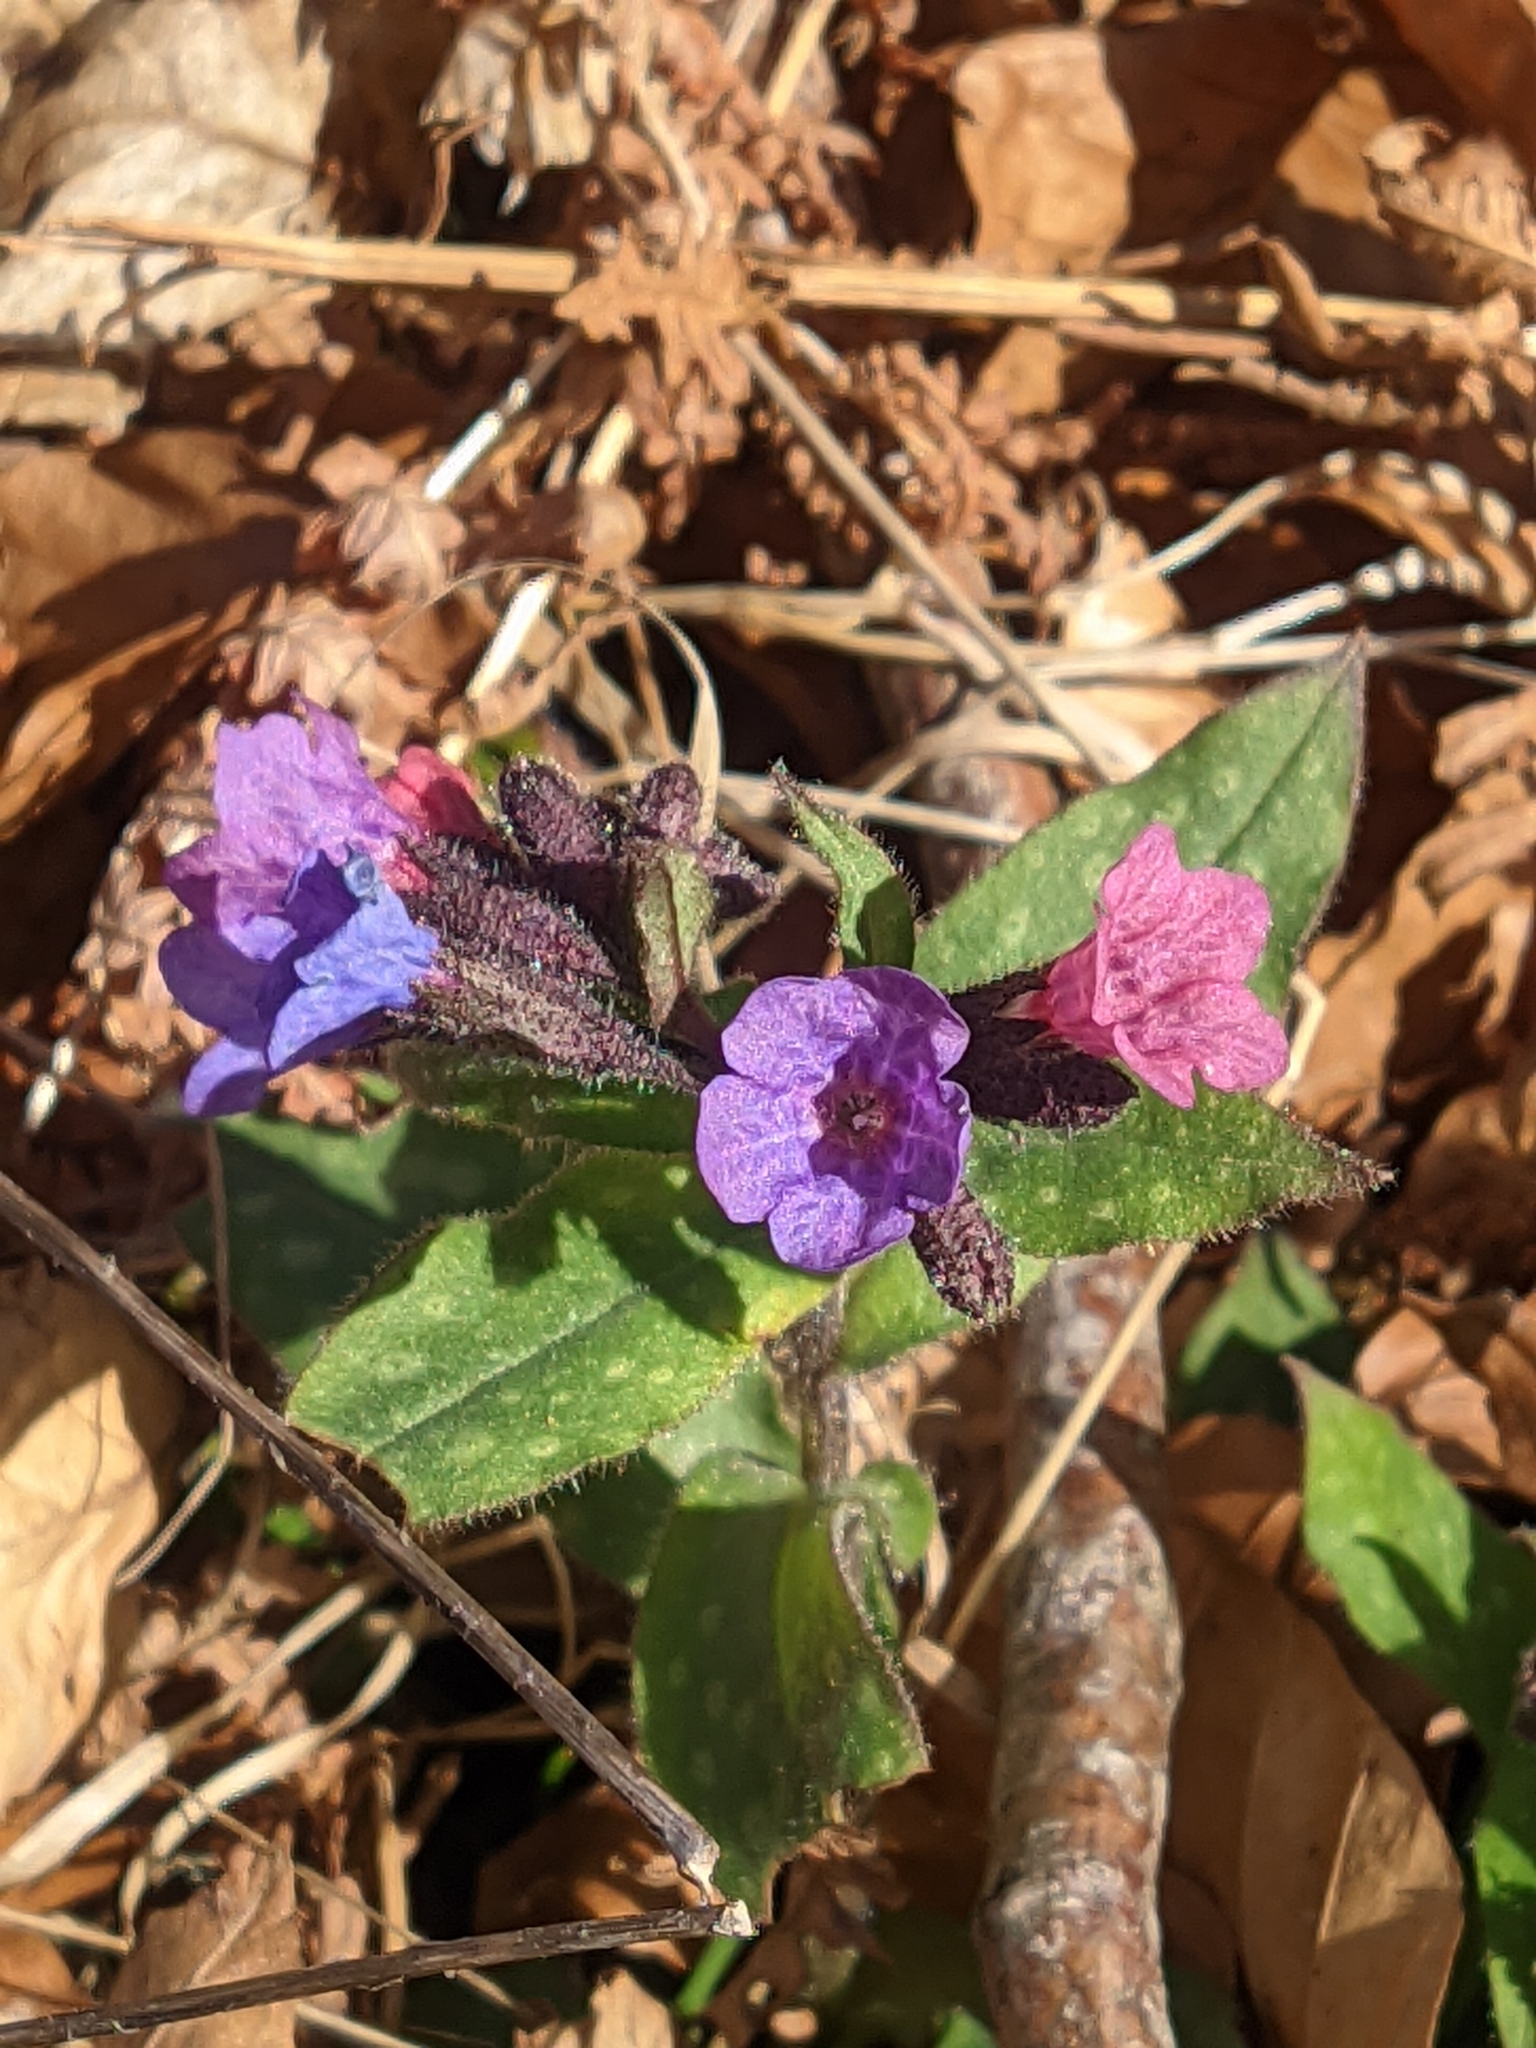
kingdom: Plantae
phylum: Tracheophyta
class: Magnoliopsida
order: Boraginales
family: Boraginaceae
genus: Pulmonaria
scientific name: Pulmonaria affinis
